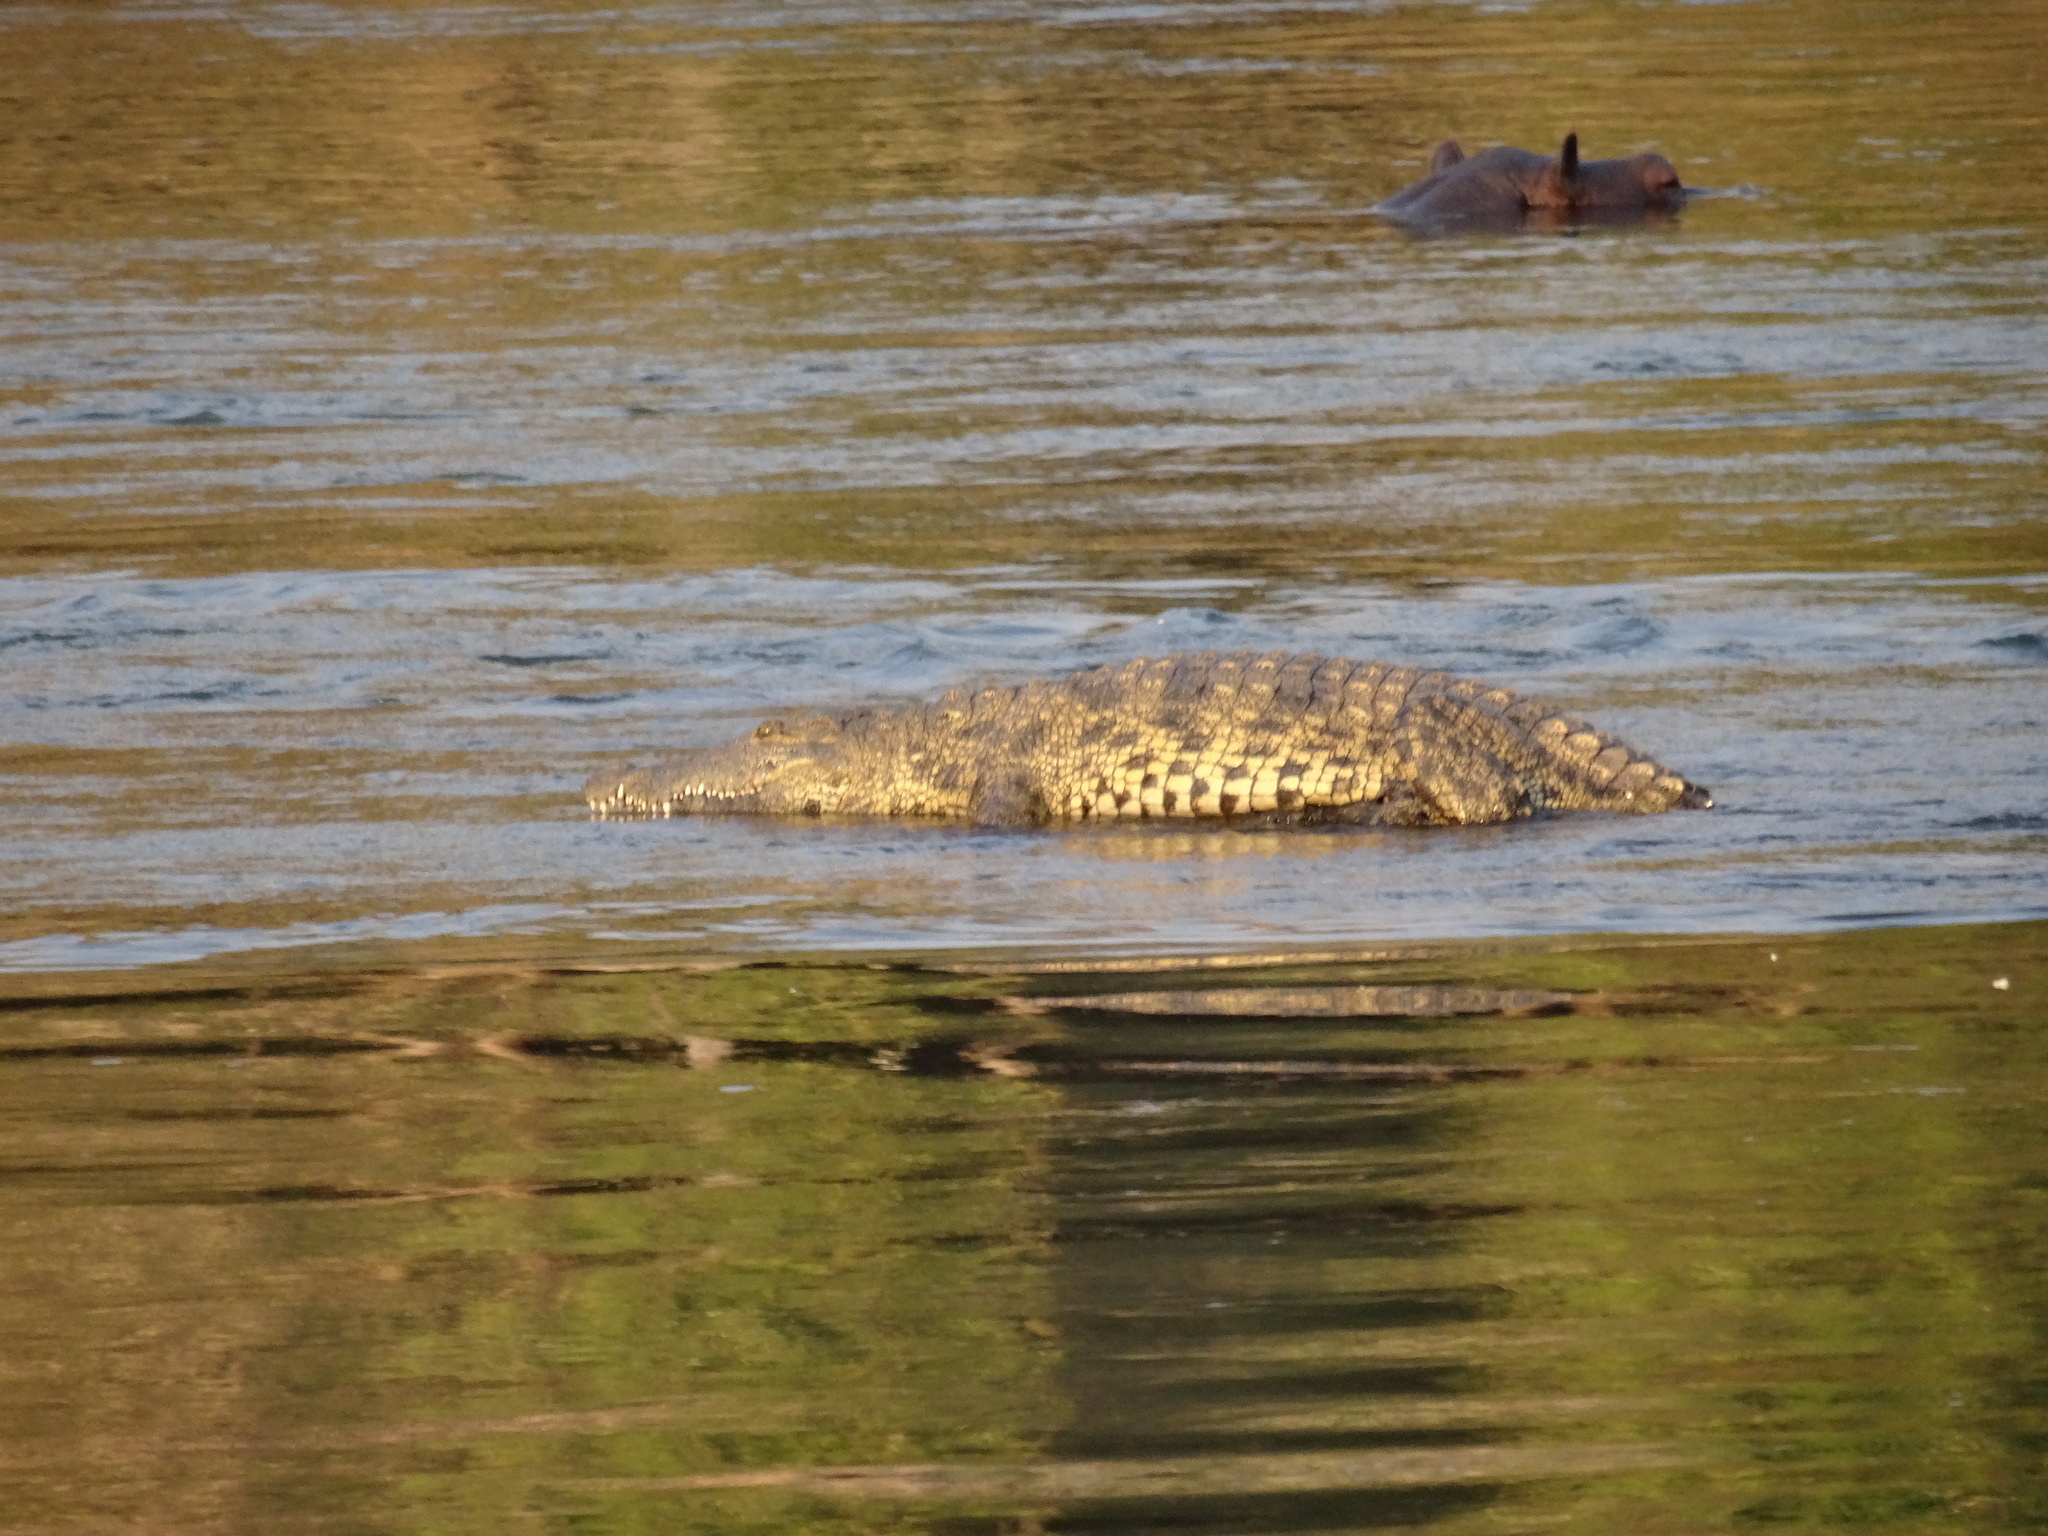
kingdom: Animalia
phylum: Chordata
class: Crocodylia
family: Crocodylidae
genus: Crocodylus
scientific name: Crocodylus niloticus
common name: Nile crocodile
